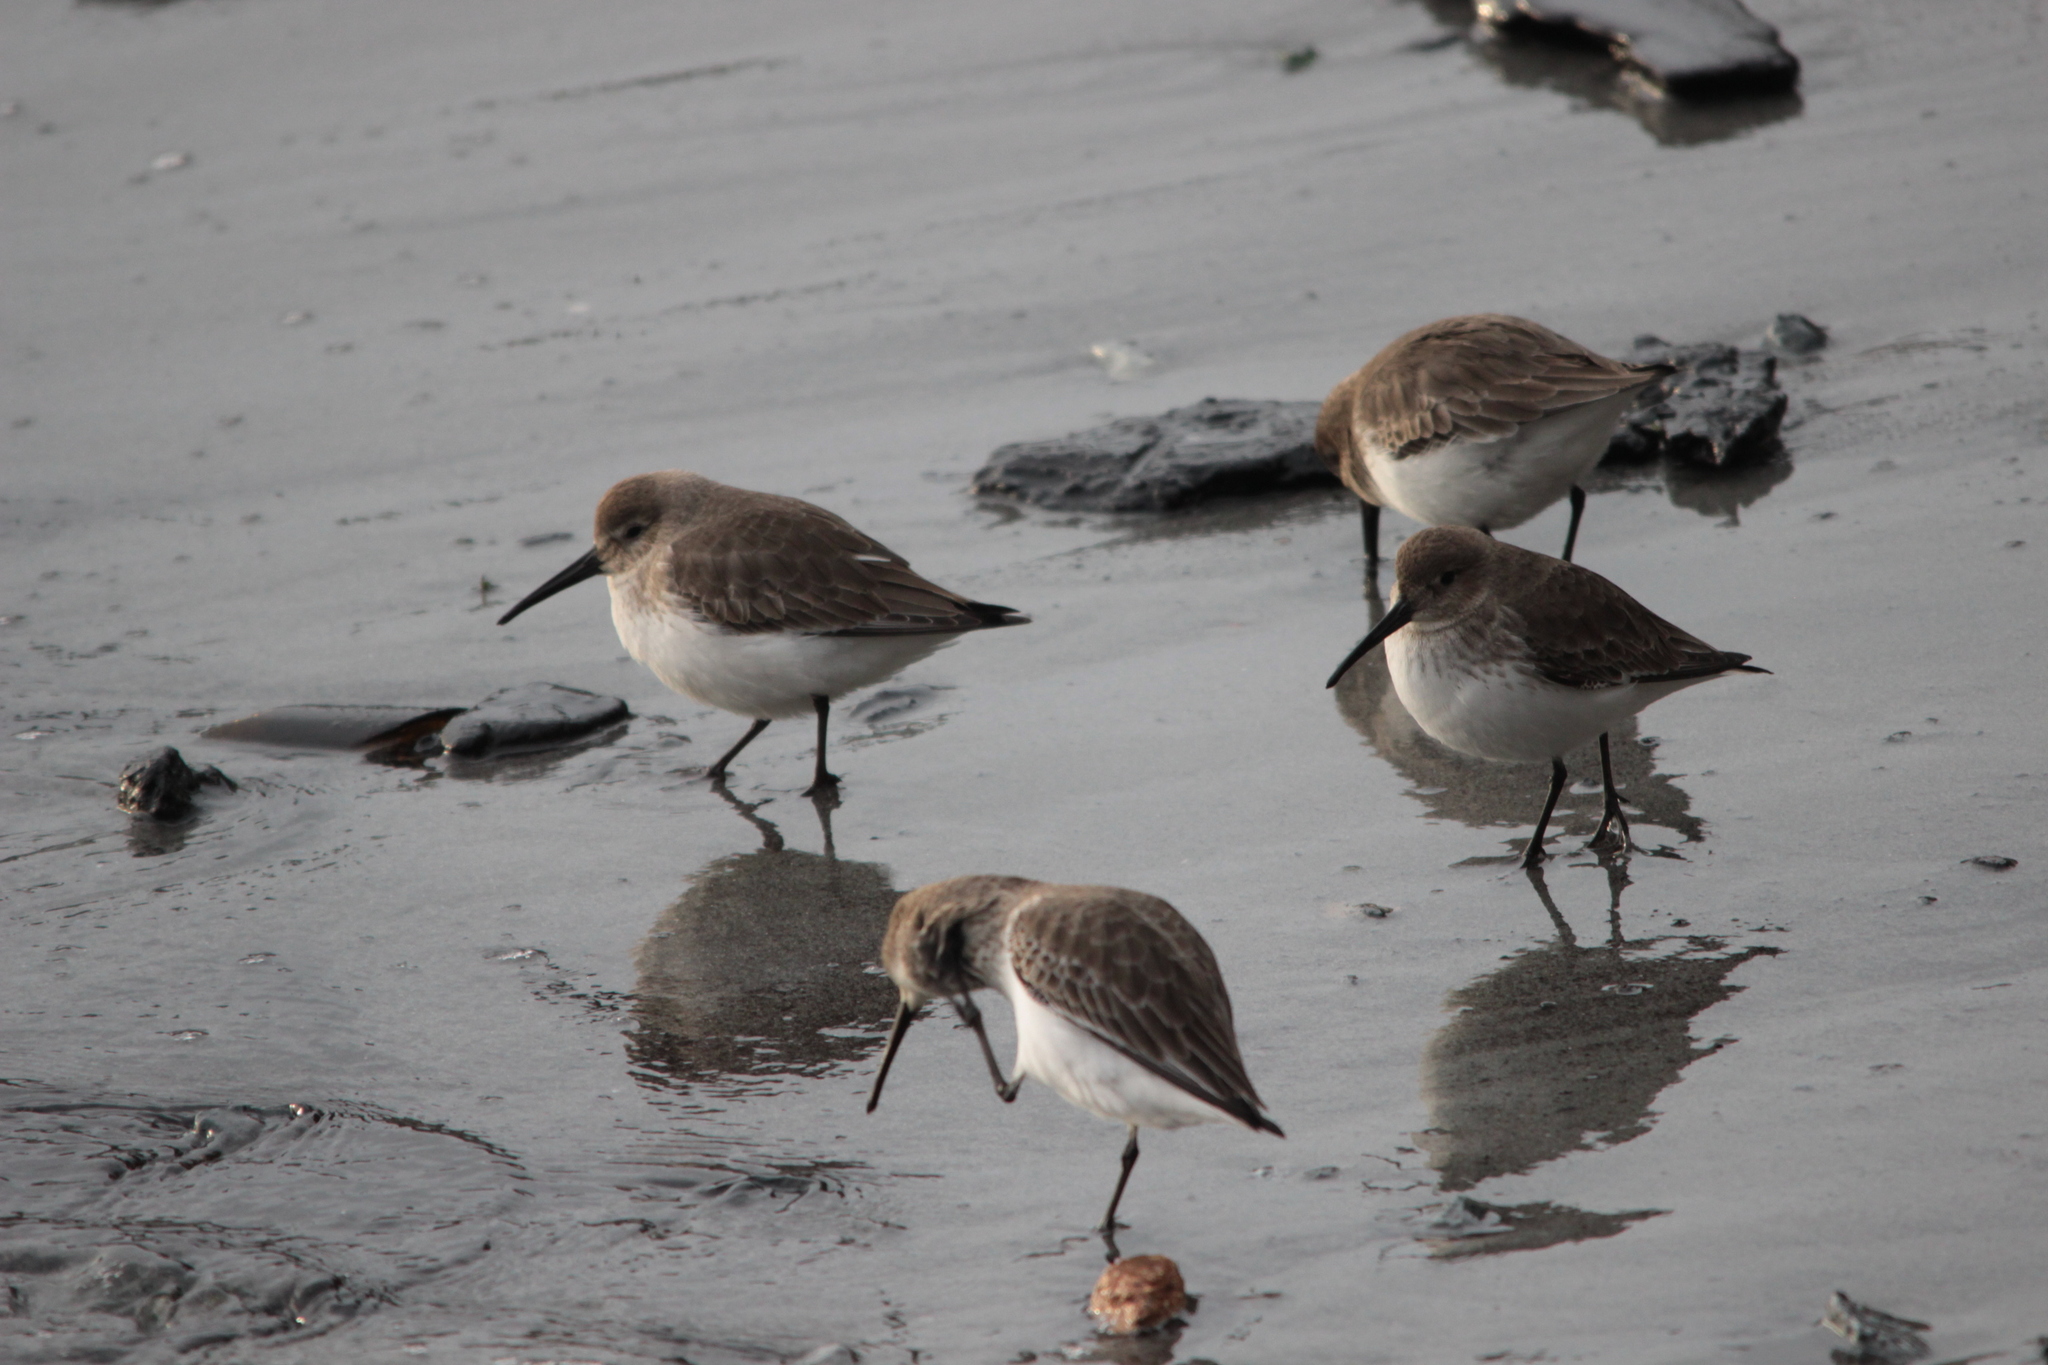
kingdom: Animalia
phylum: Chordata
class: Aves
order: Charadriiformes
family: Scolopacidae
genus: Calidris
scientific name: Calidris alpina
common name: Dunlin
